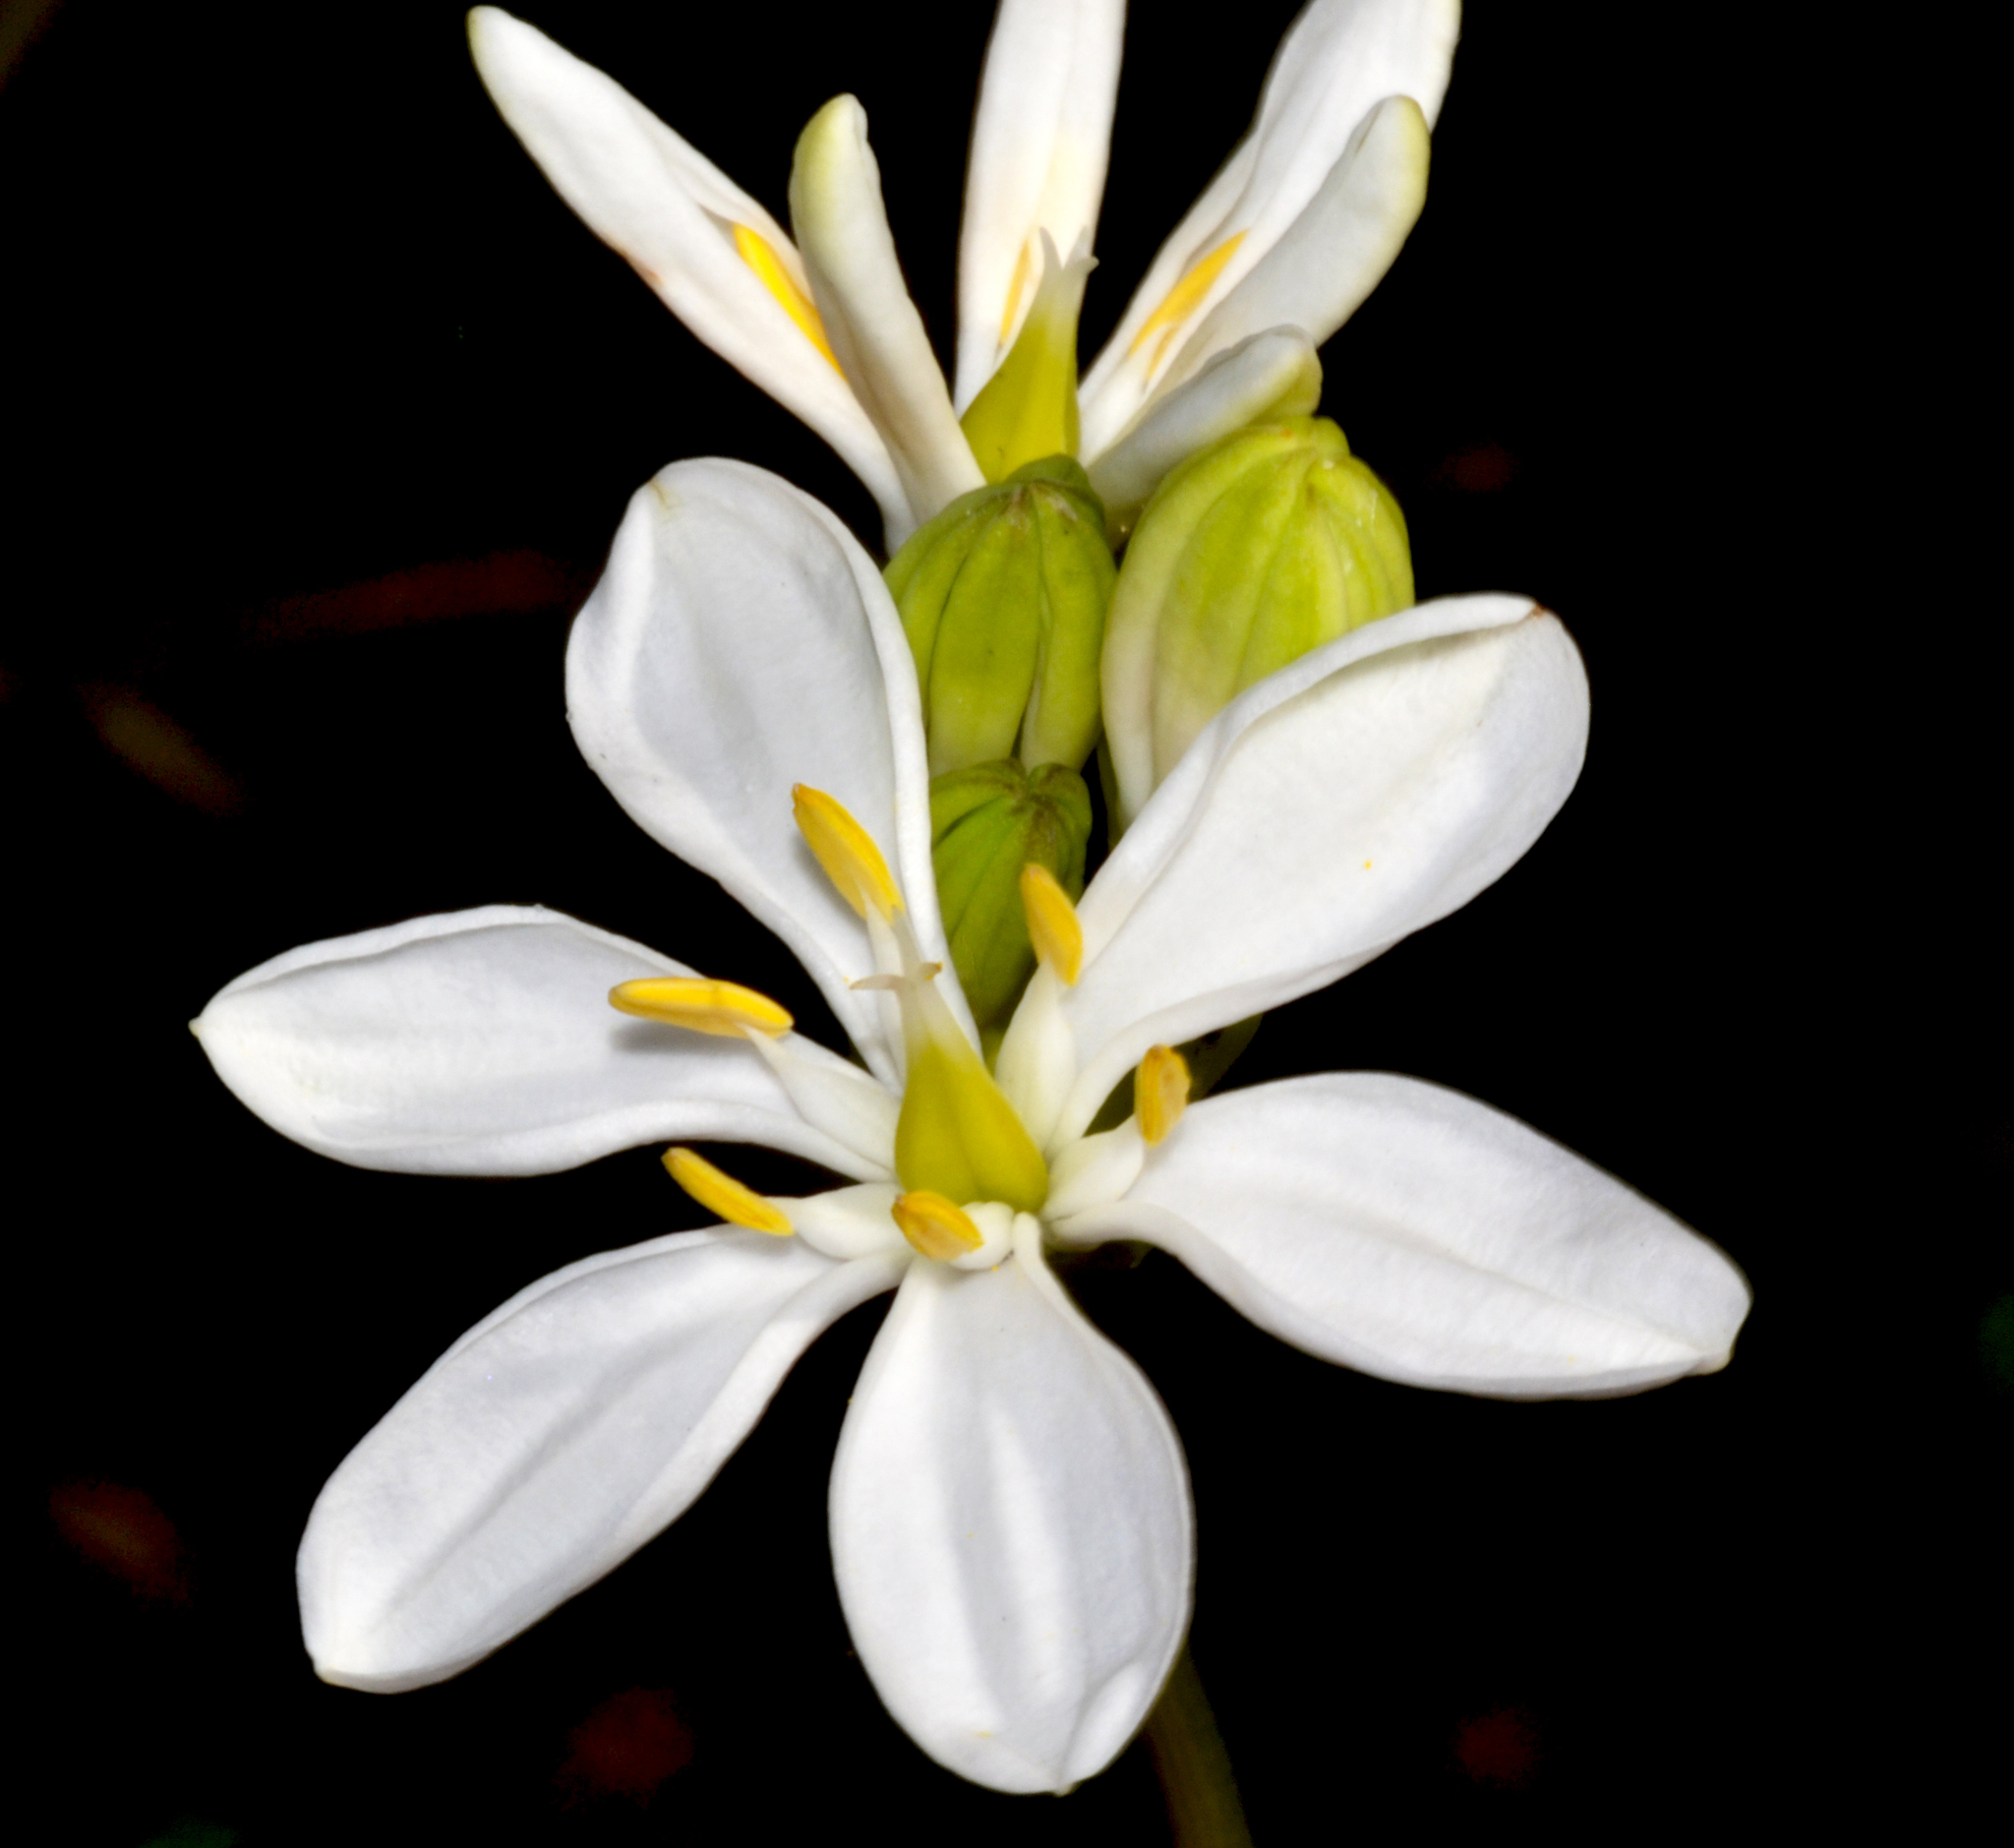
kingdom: Plantae
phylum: Tracheophyta
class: Liliopsida
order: Liliales
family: Colchicaceae
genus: Burchardia
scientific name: Burchardia congesta
